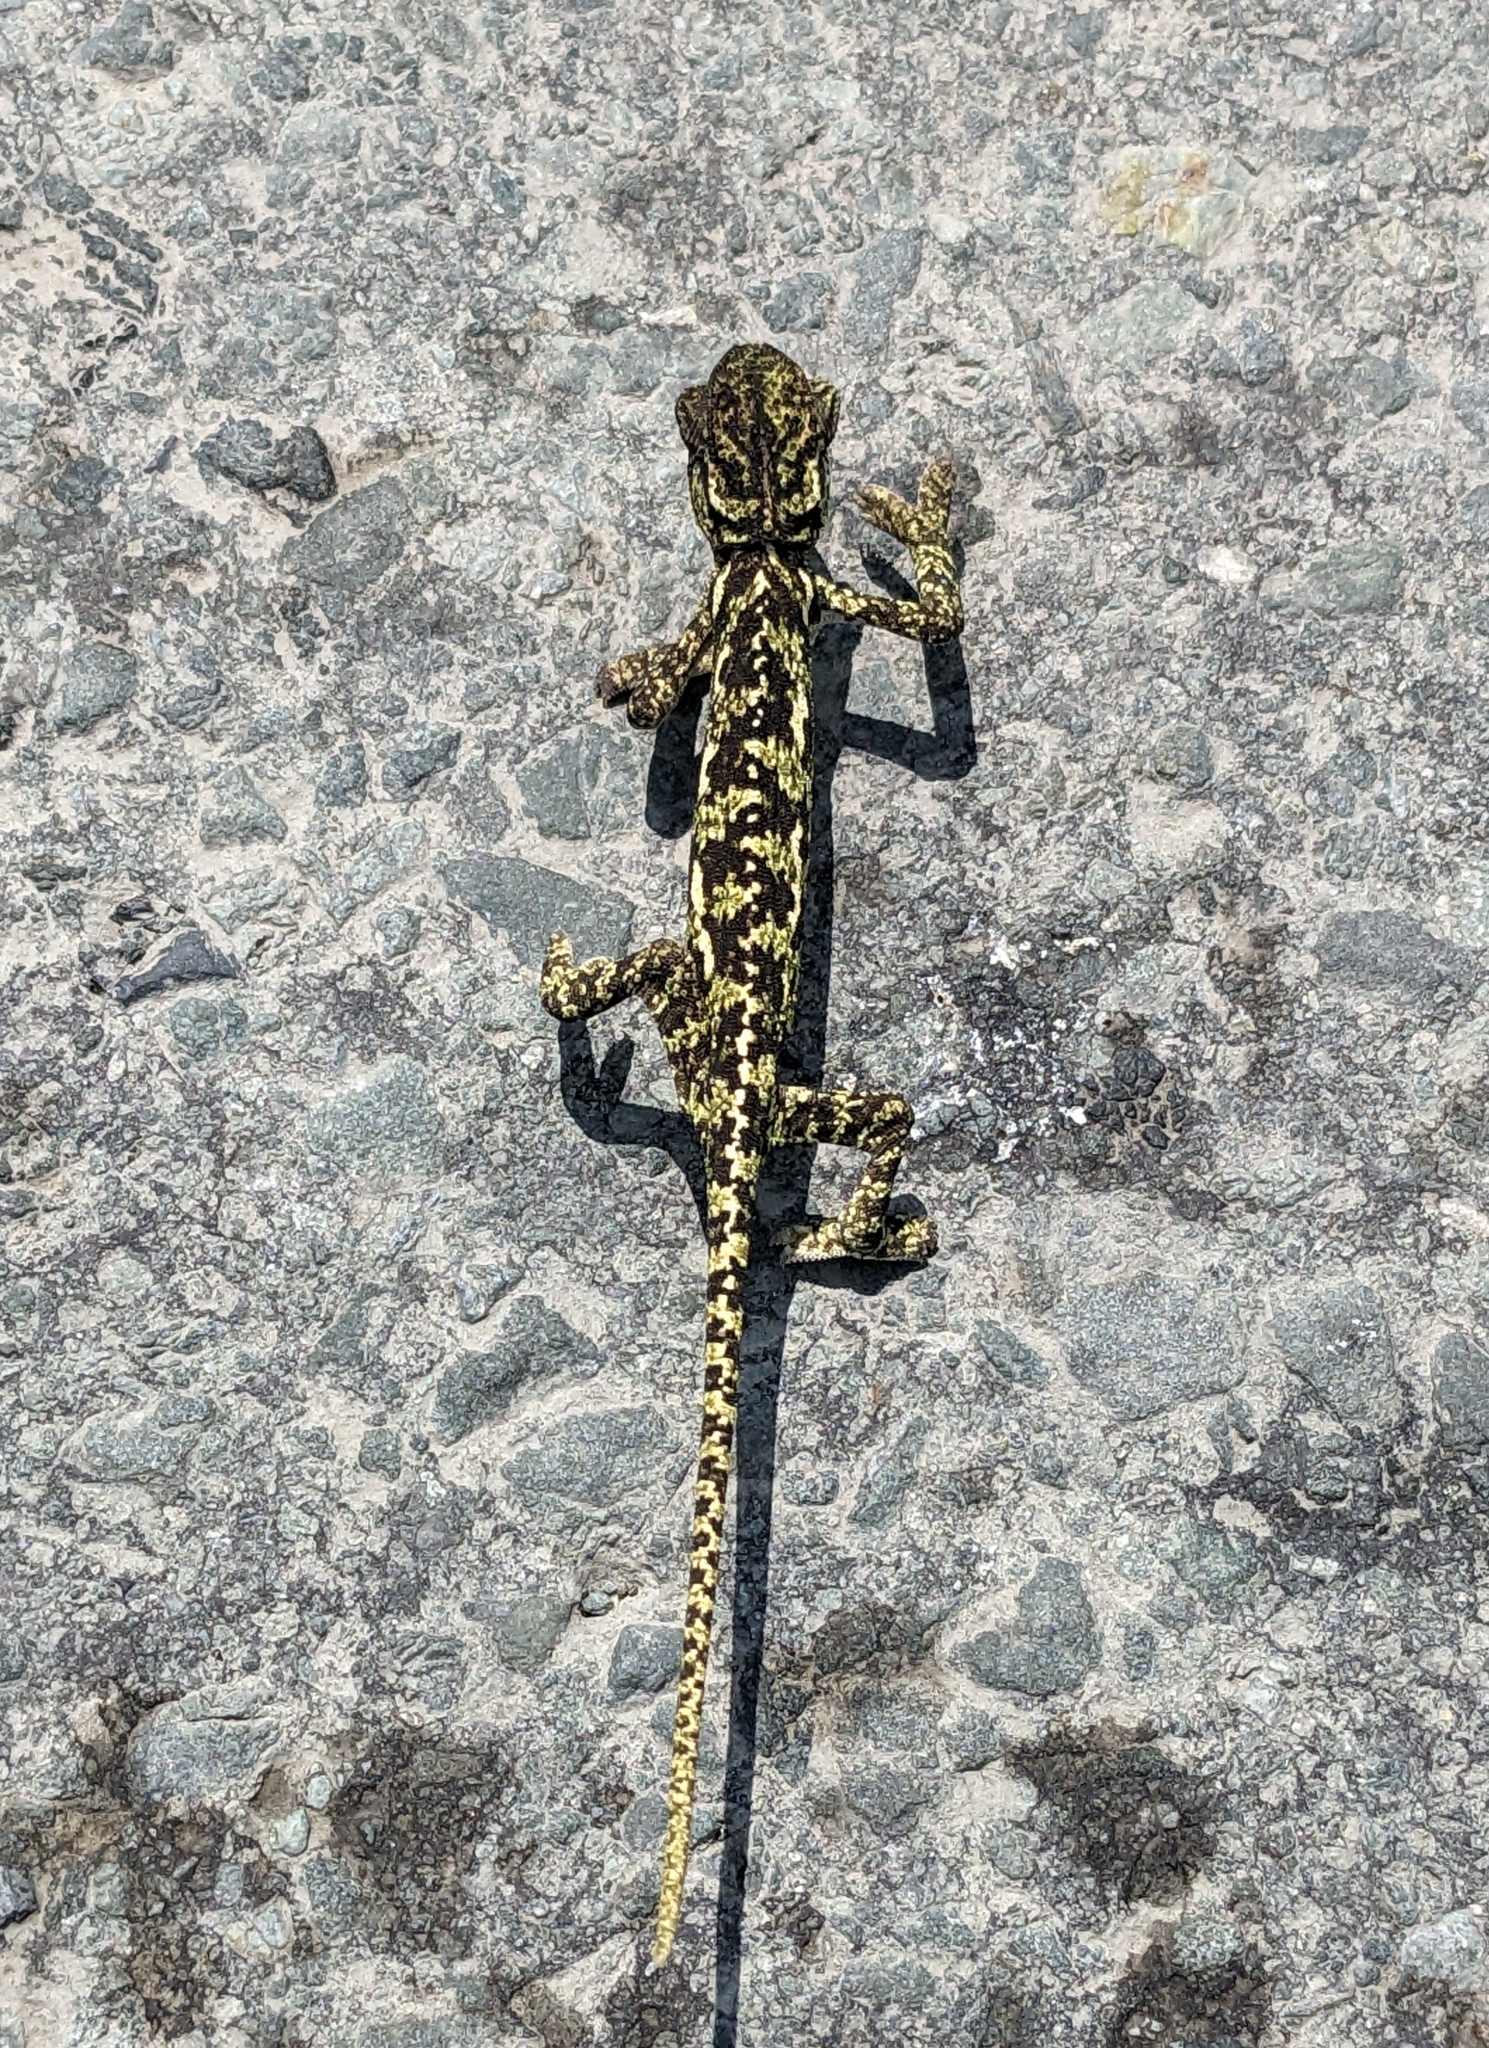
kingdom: Animalia
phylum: Chordata
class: Squamata
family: Chamaeleonidae
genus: Chamaeleo
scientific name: Chamaeleo chamaeleon
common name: Mediterranean chameleon
